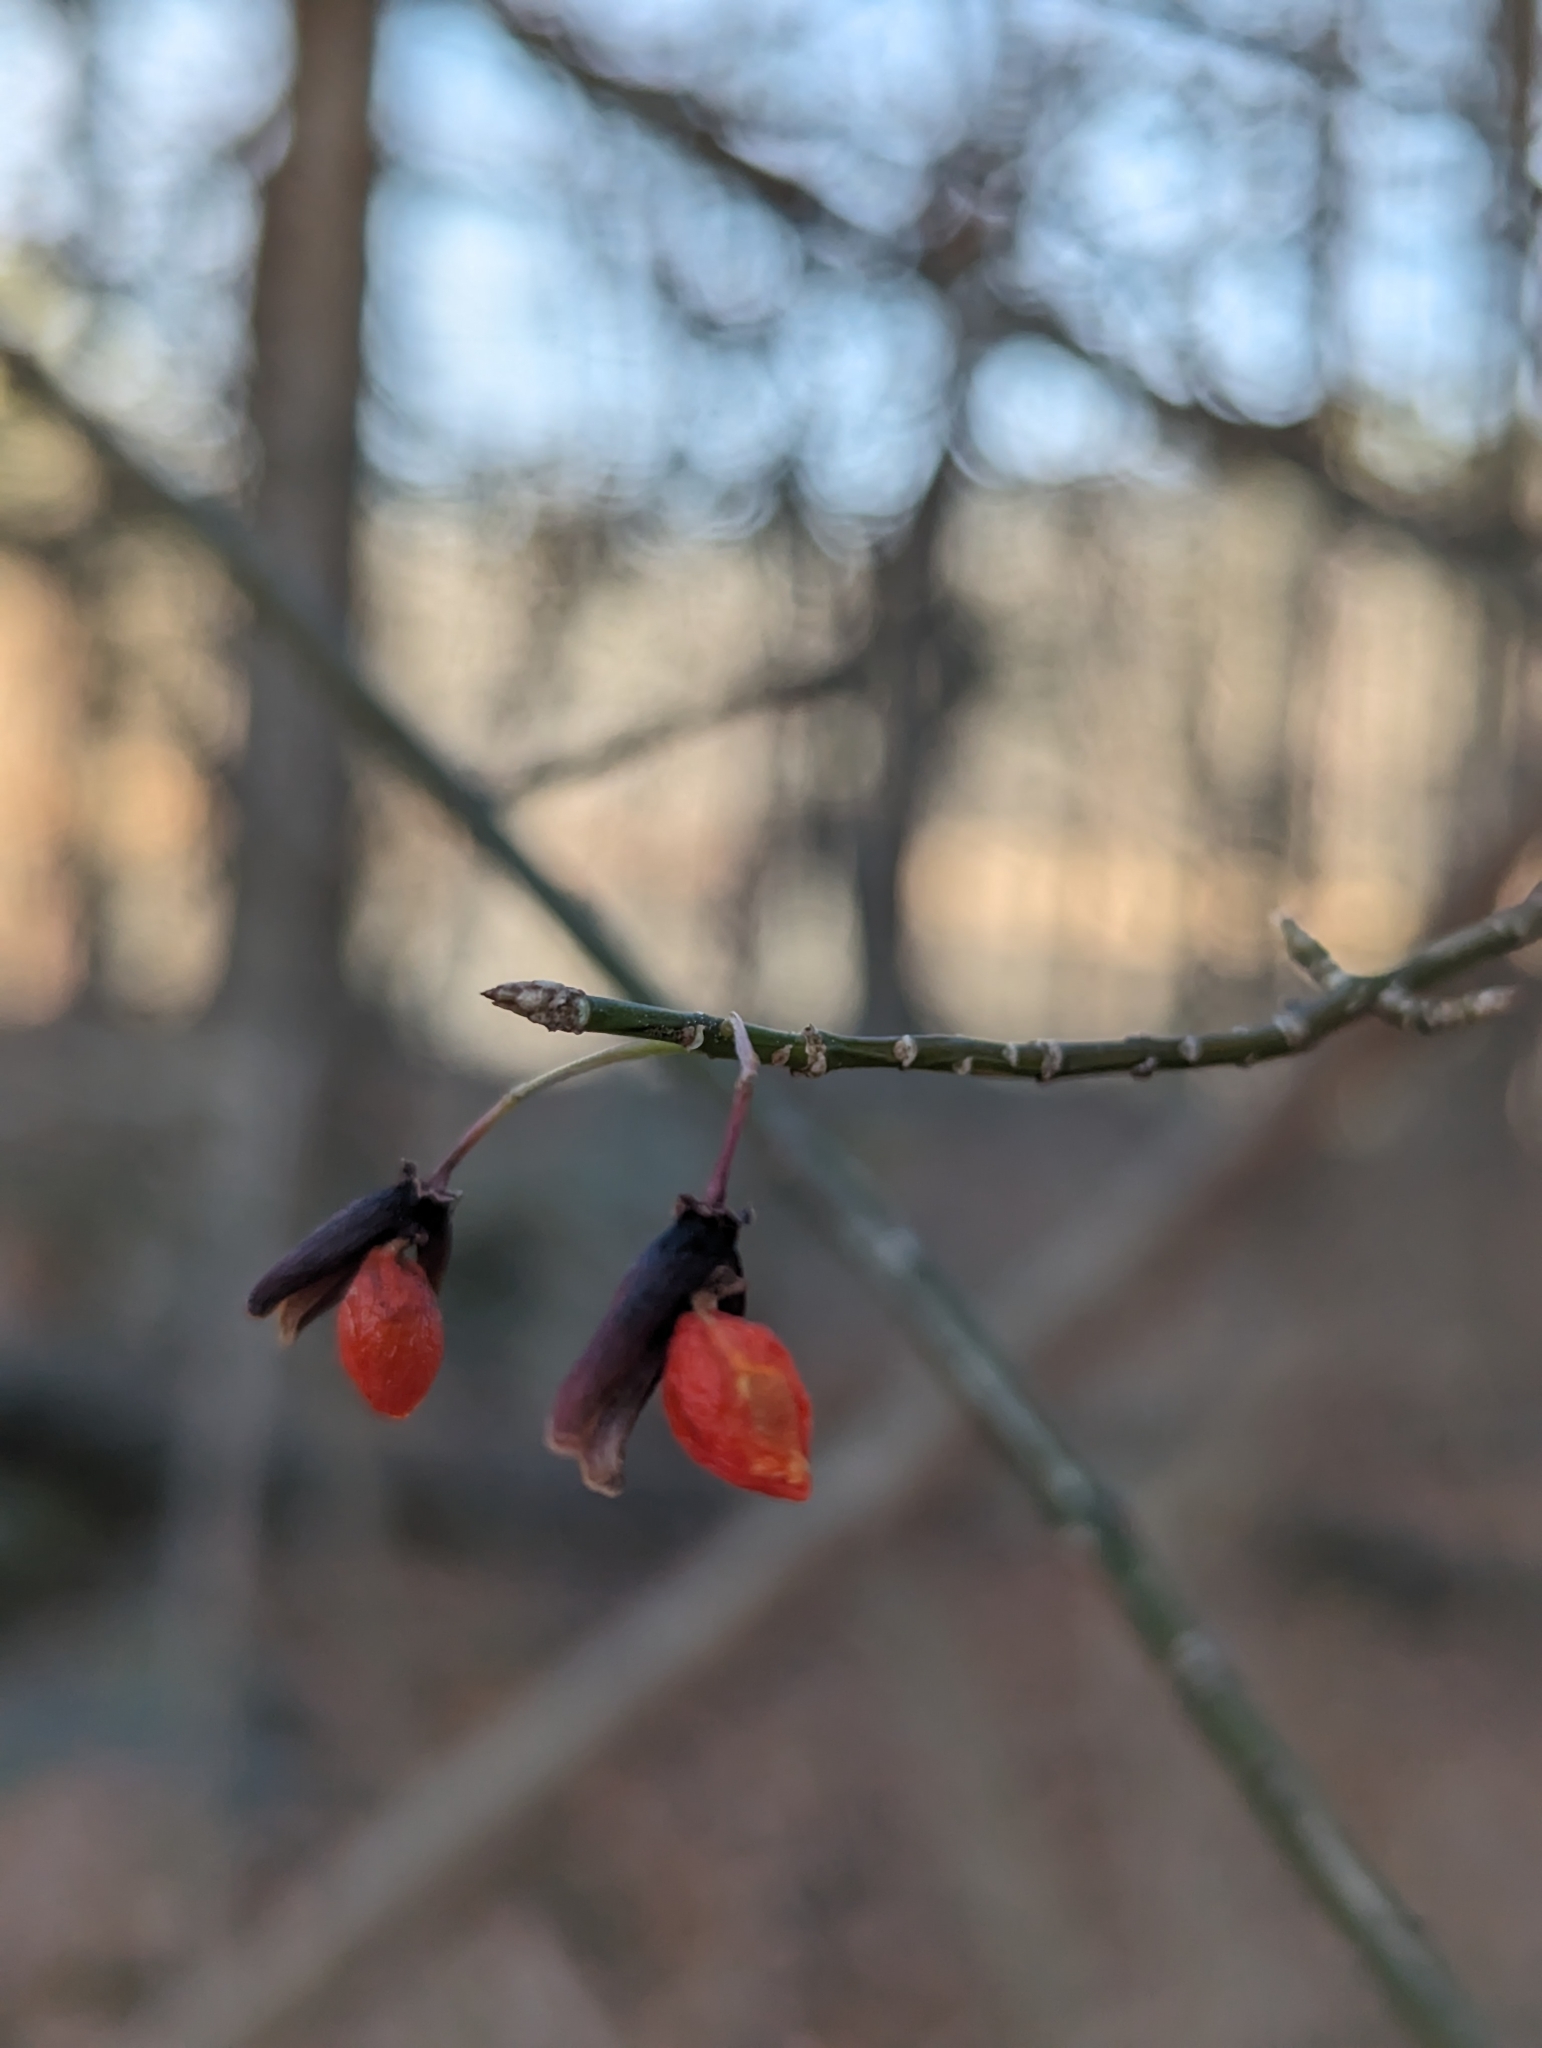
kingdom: Plantae
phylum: Tracheophyta
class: Magnoliopsida
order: Celastrales
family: Celastraceae
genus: Euonymus
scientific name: Euonymus alatus
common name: Winged euonymus
